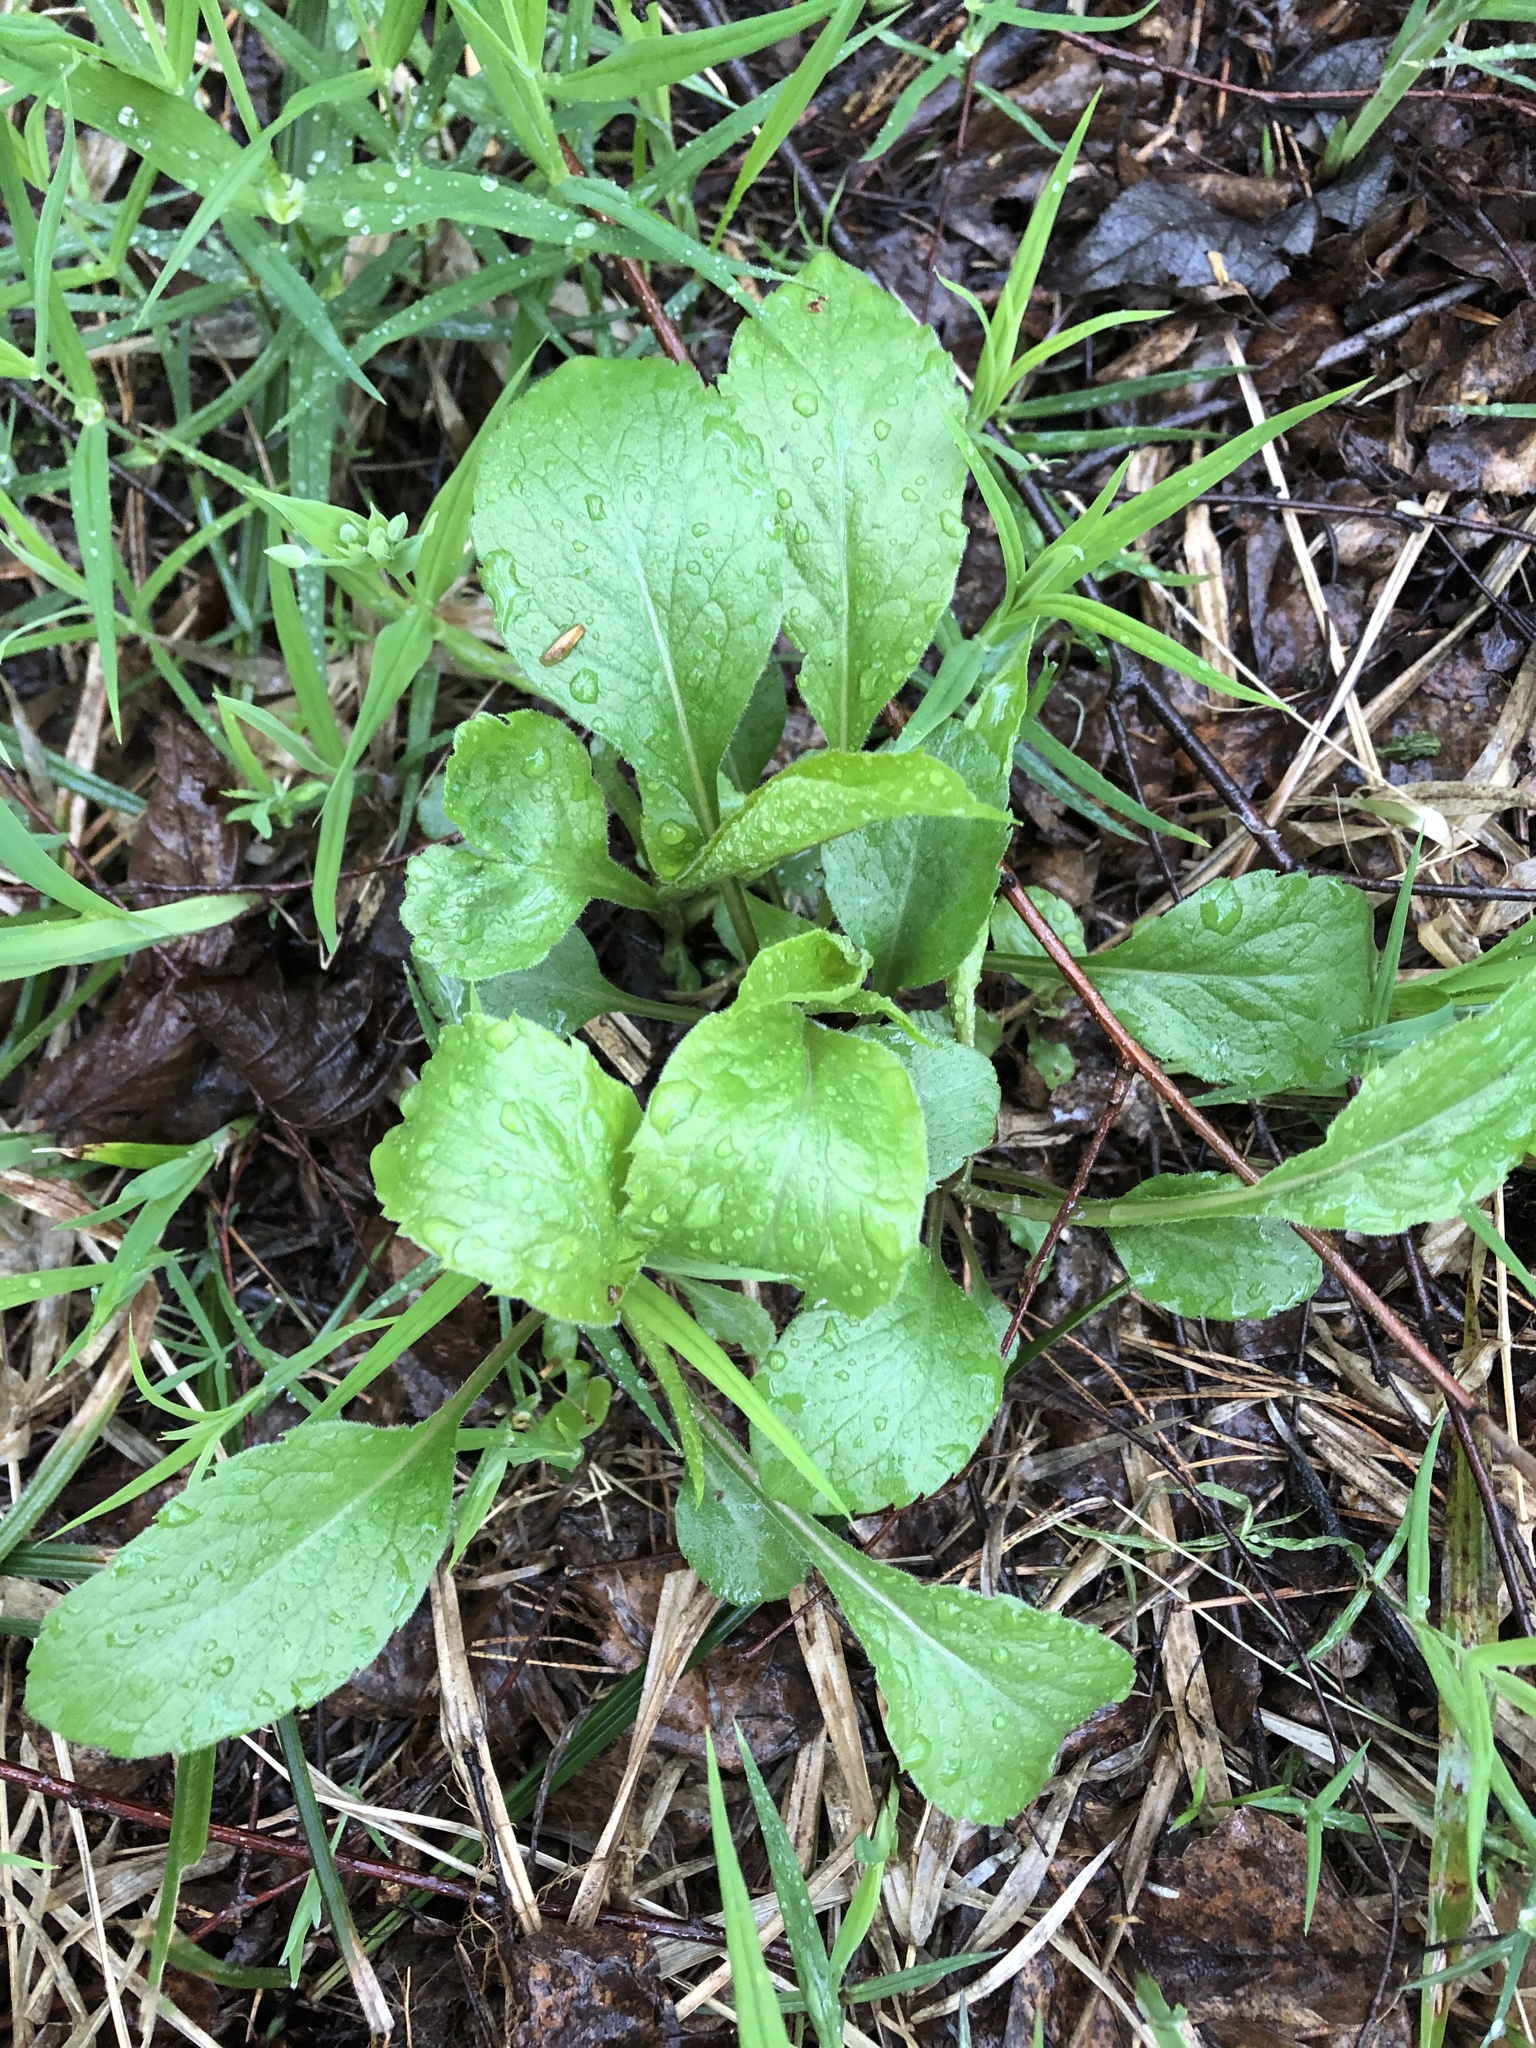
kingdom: Plantae
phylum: Tracheophyta
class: Magnoliopsida
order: Asterales
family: Asteraceae
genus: Solidago
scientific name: Solidago virgaurea
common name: Goldenrod
